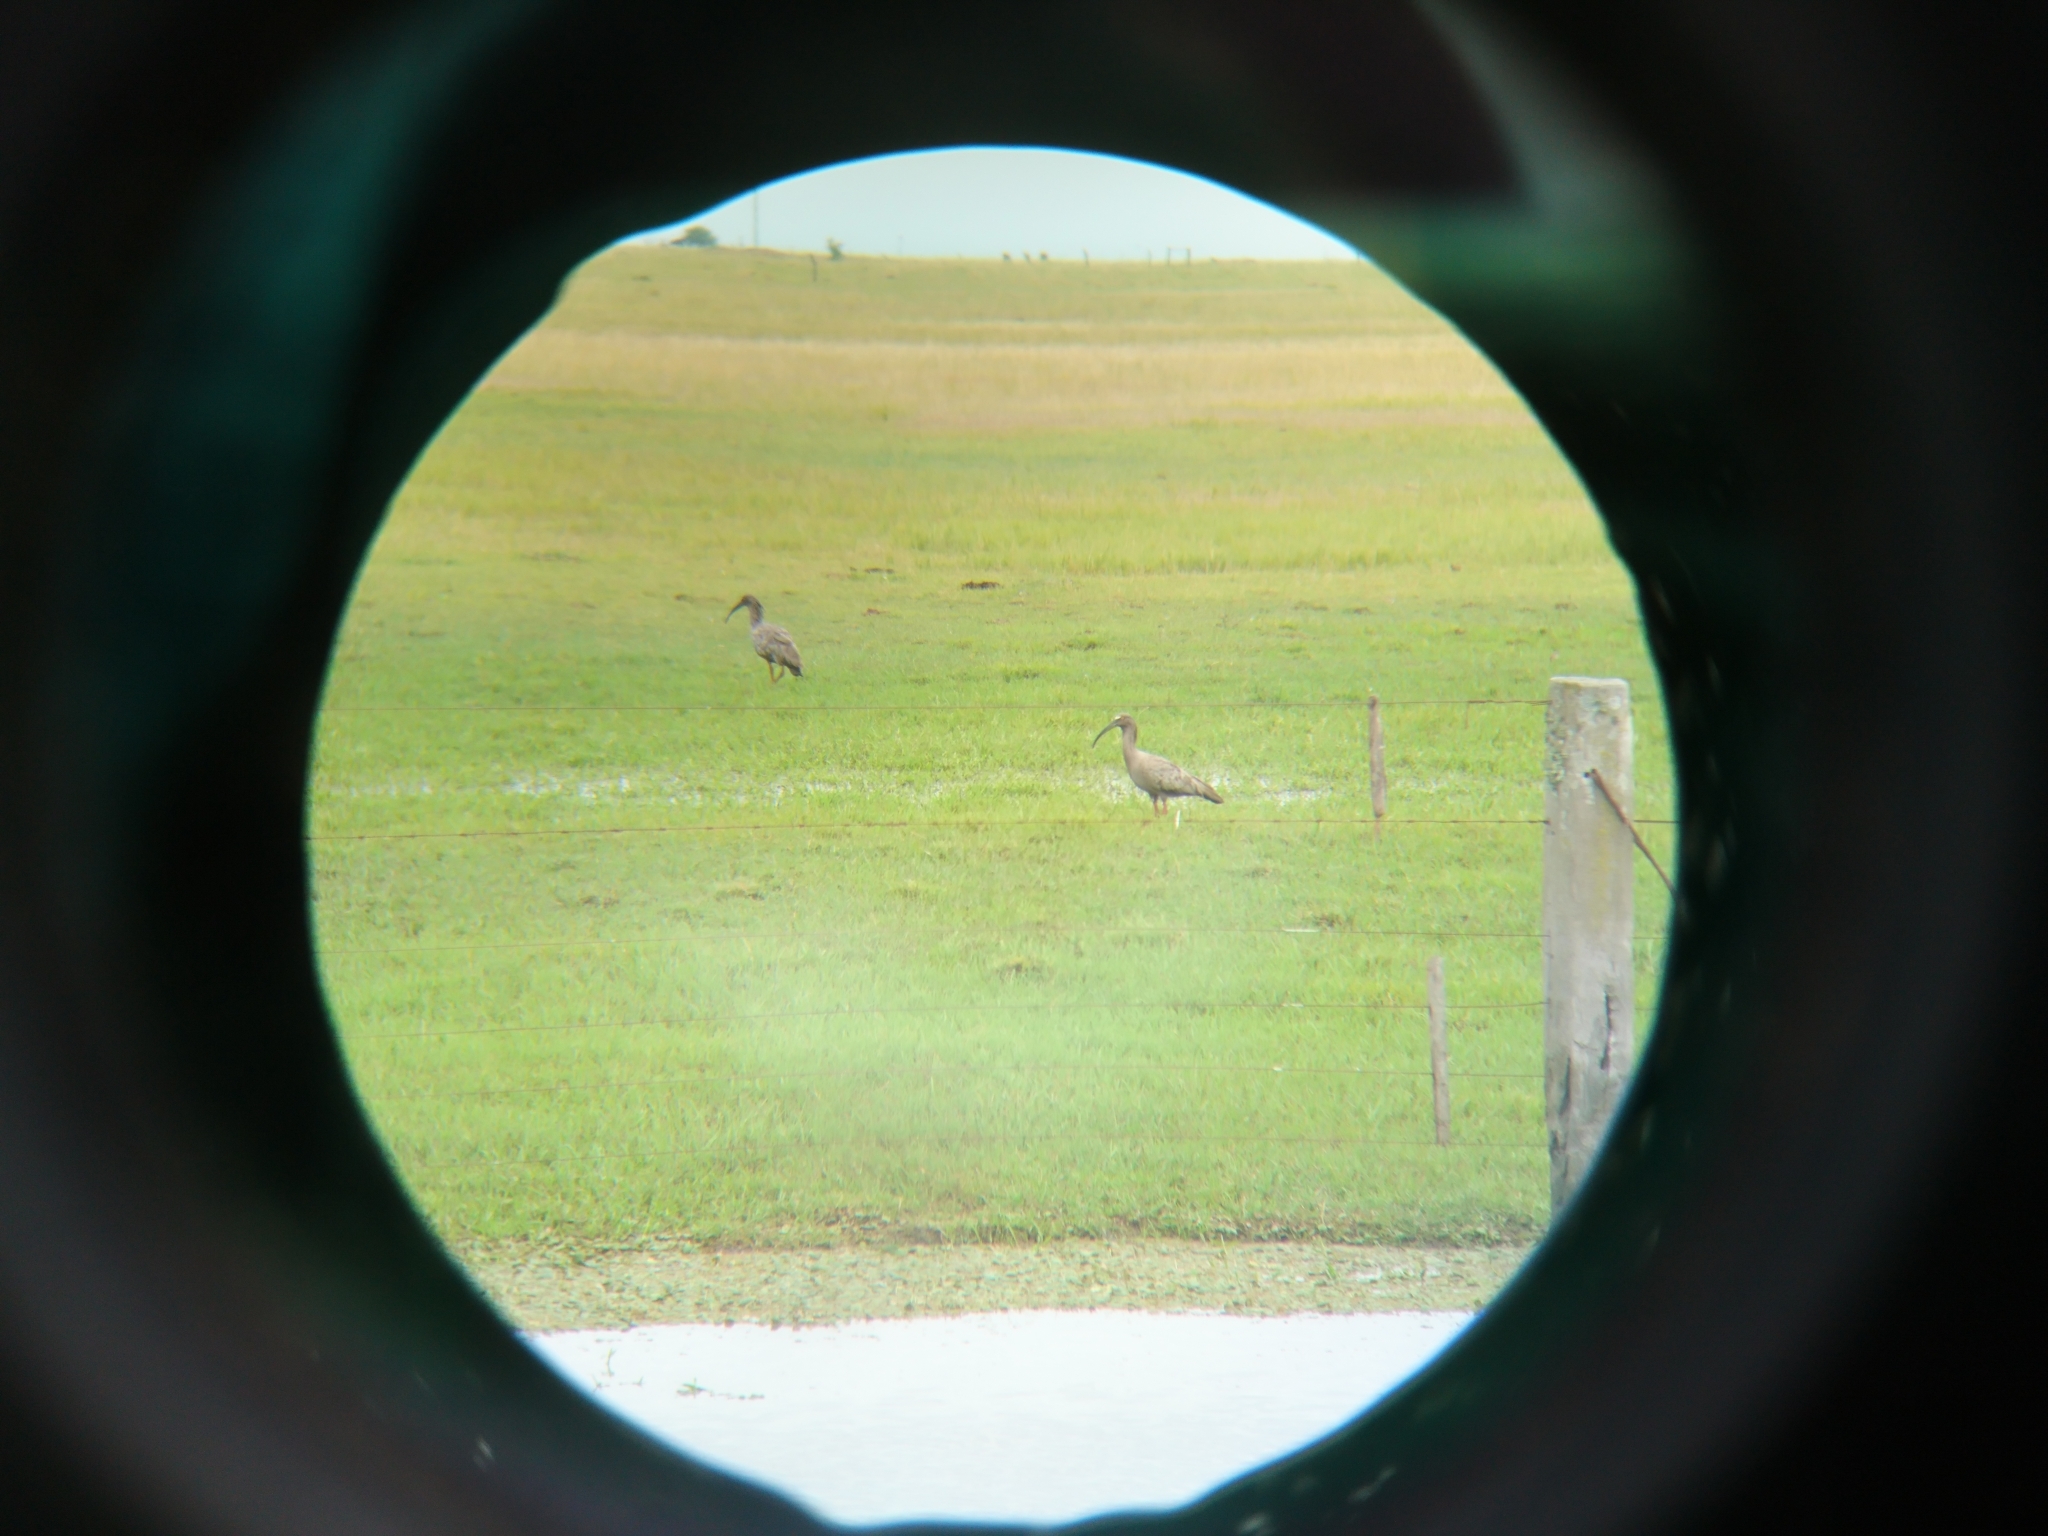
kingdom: Animalia
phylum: Chordata
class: Aves
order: Pelecaniformes
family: Threskiornithidae
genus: Theristicus
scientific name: Theristicus caerulescens
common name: Plumbeous ibis
